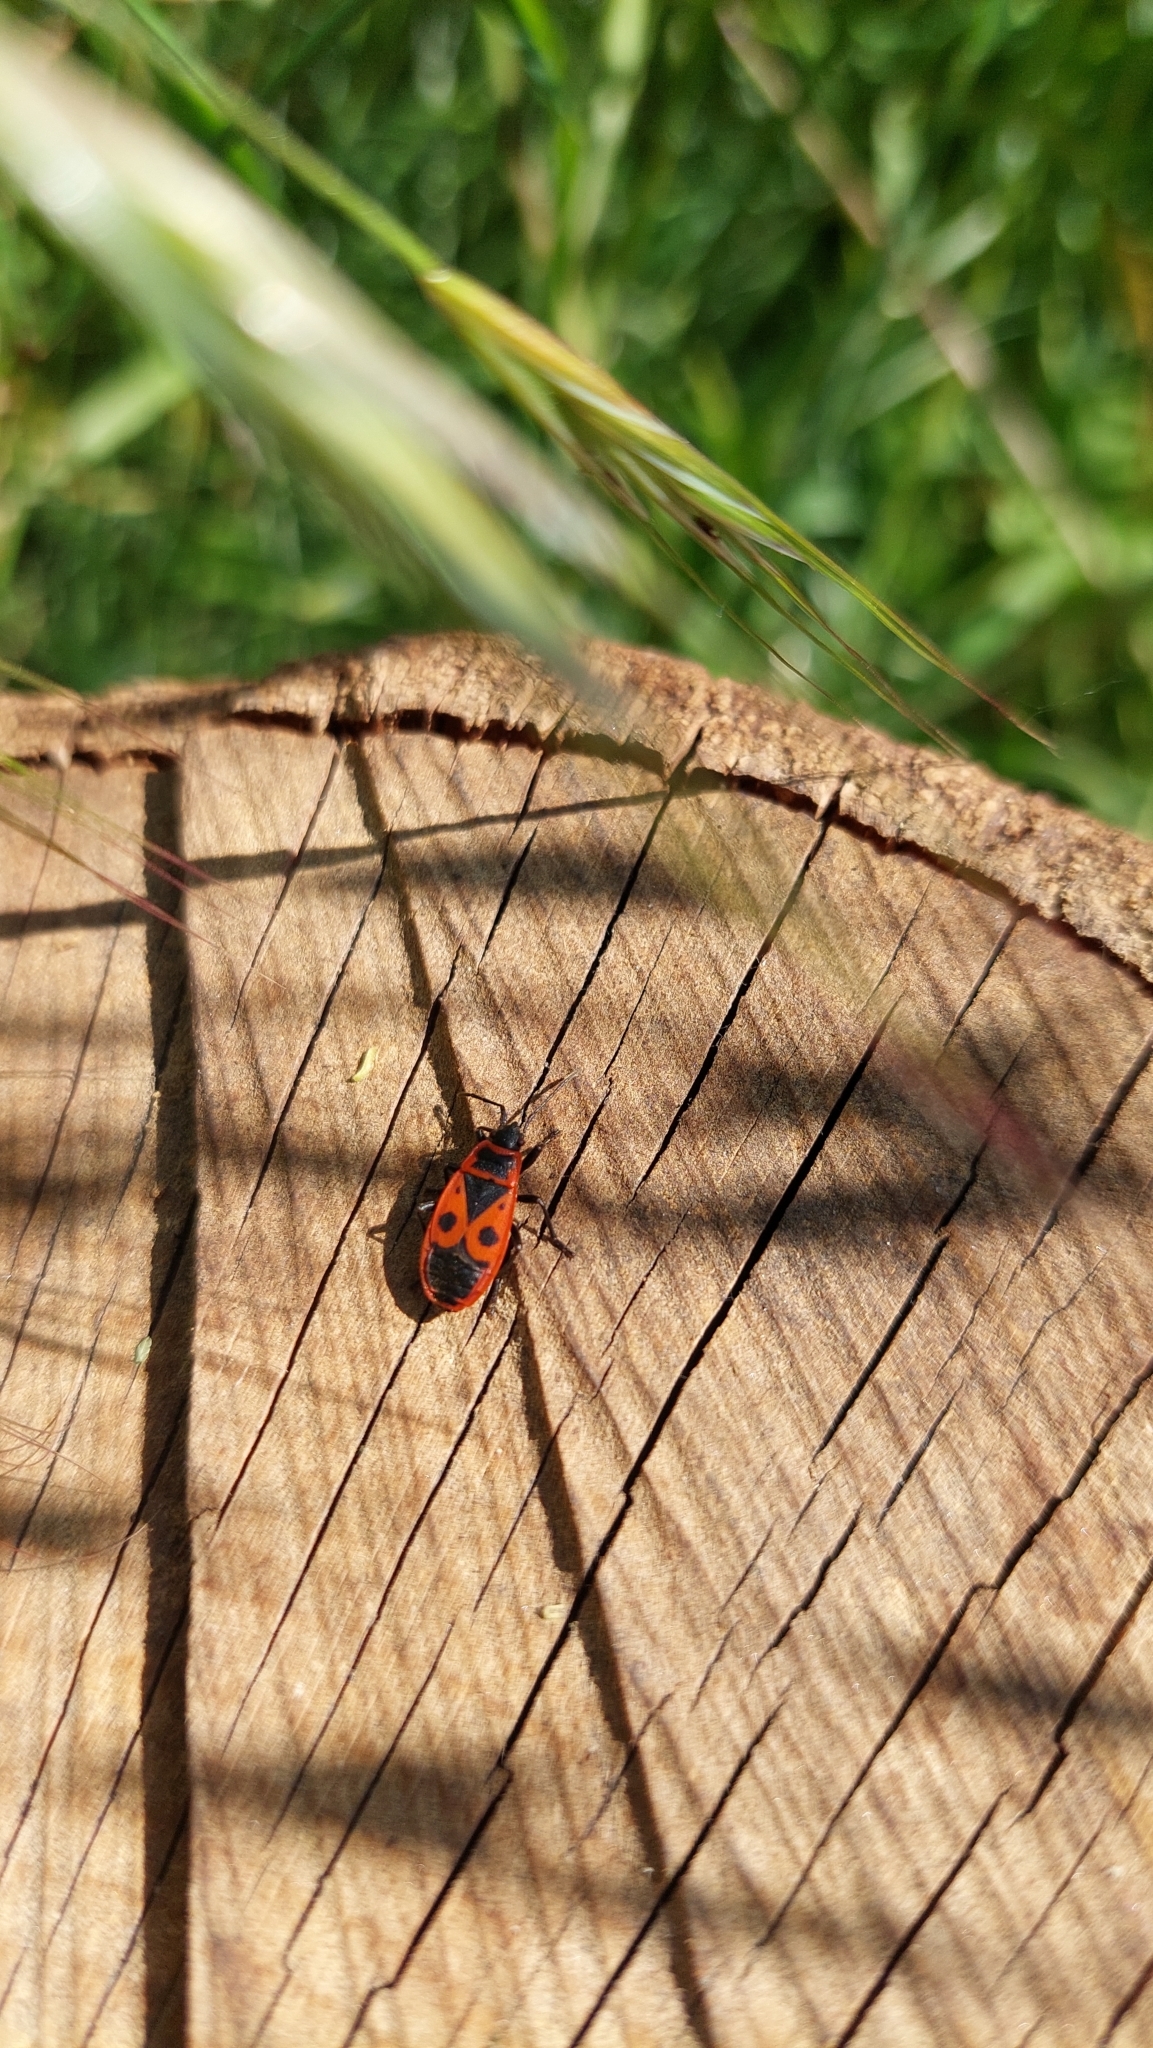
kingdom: Animalia
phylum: Arthropoda
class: Insecta
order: Hemiptera
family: Pyrrhocoridae
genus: Pyrrhocoris
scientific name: Pyrrhocoris apterus
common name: Firebug
